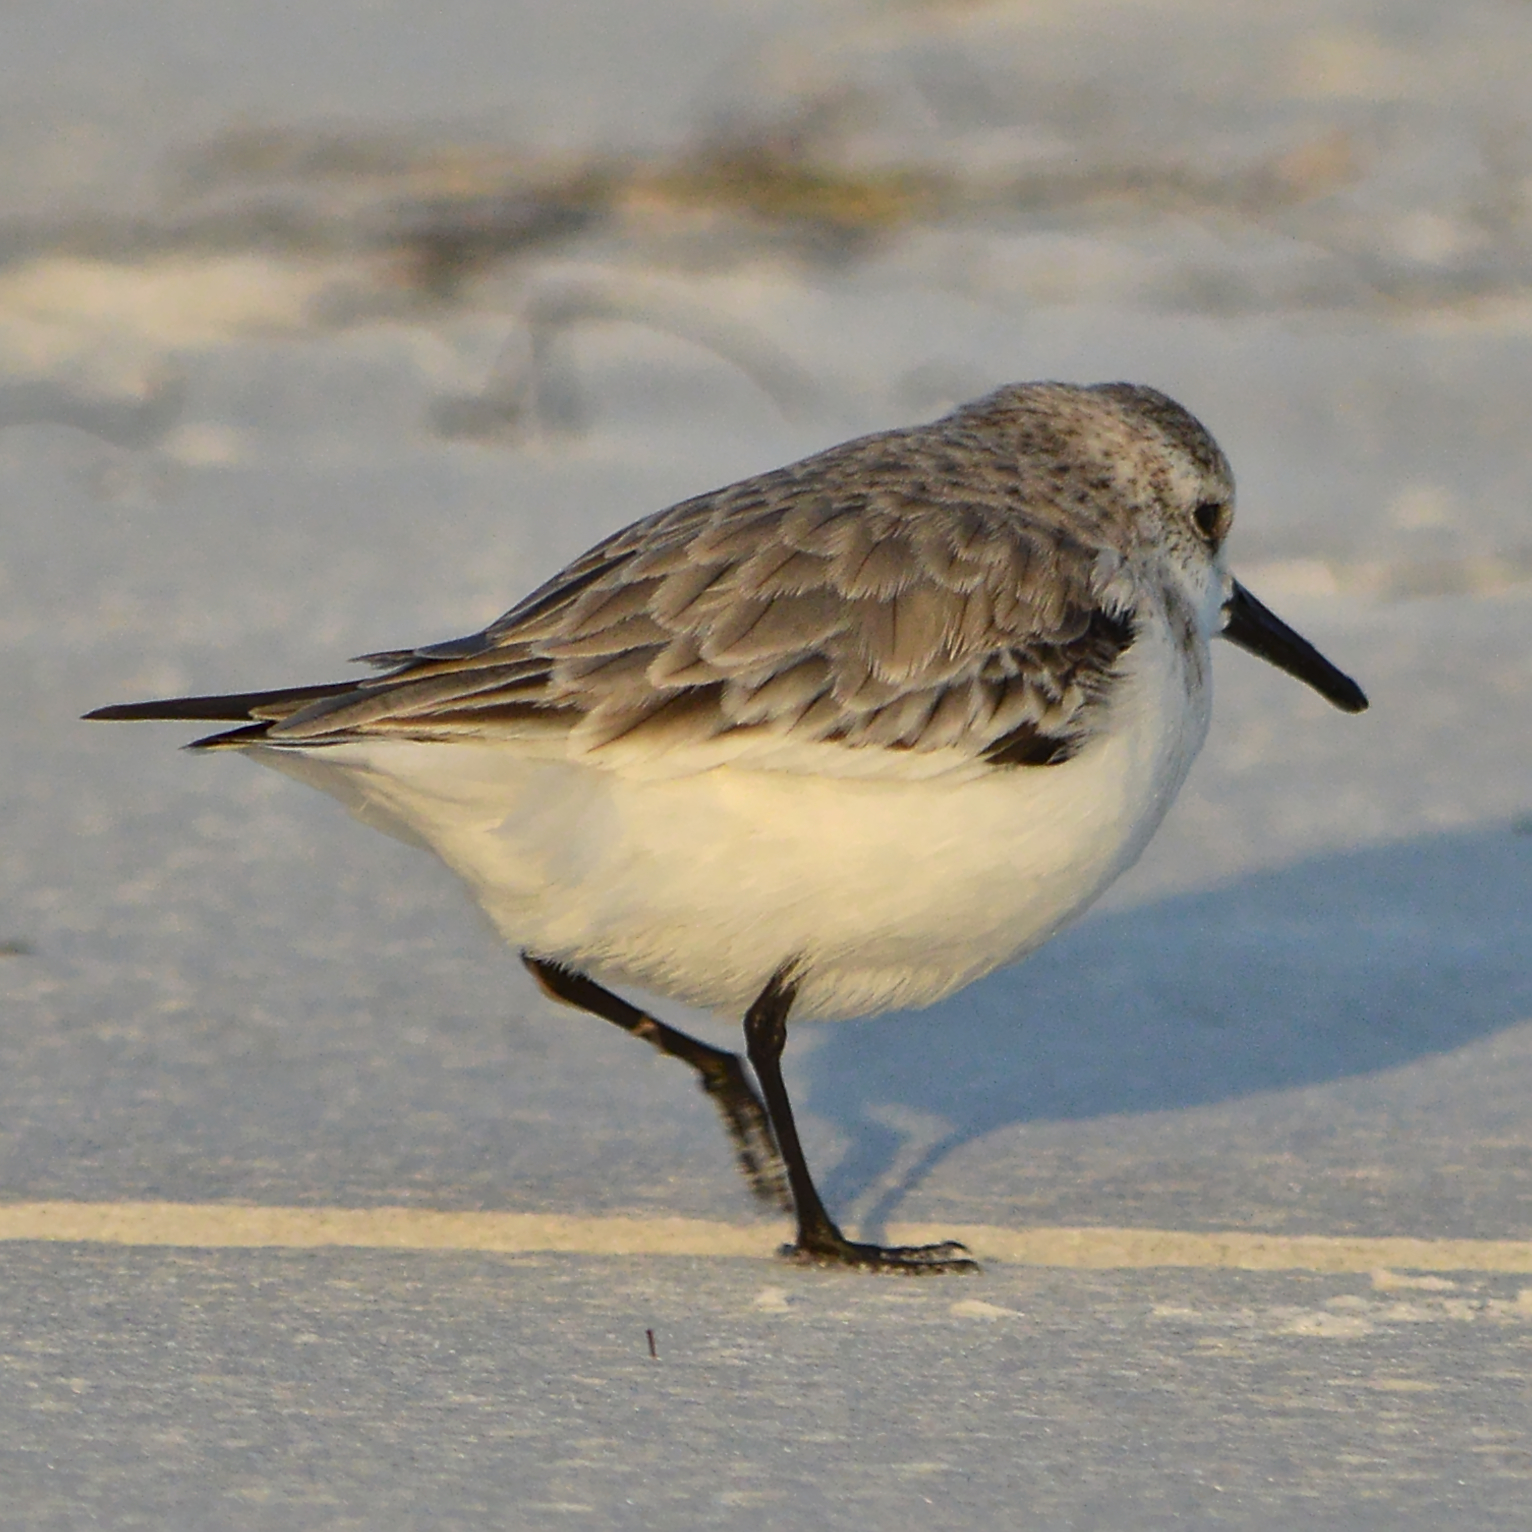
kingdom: Animalia
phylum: Chordata
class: Aves
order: Charadriiformes
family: Scolopacidae
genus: Calidris
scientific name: Calidris alba
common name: Sanderling
